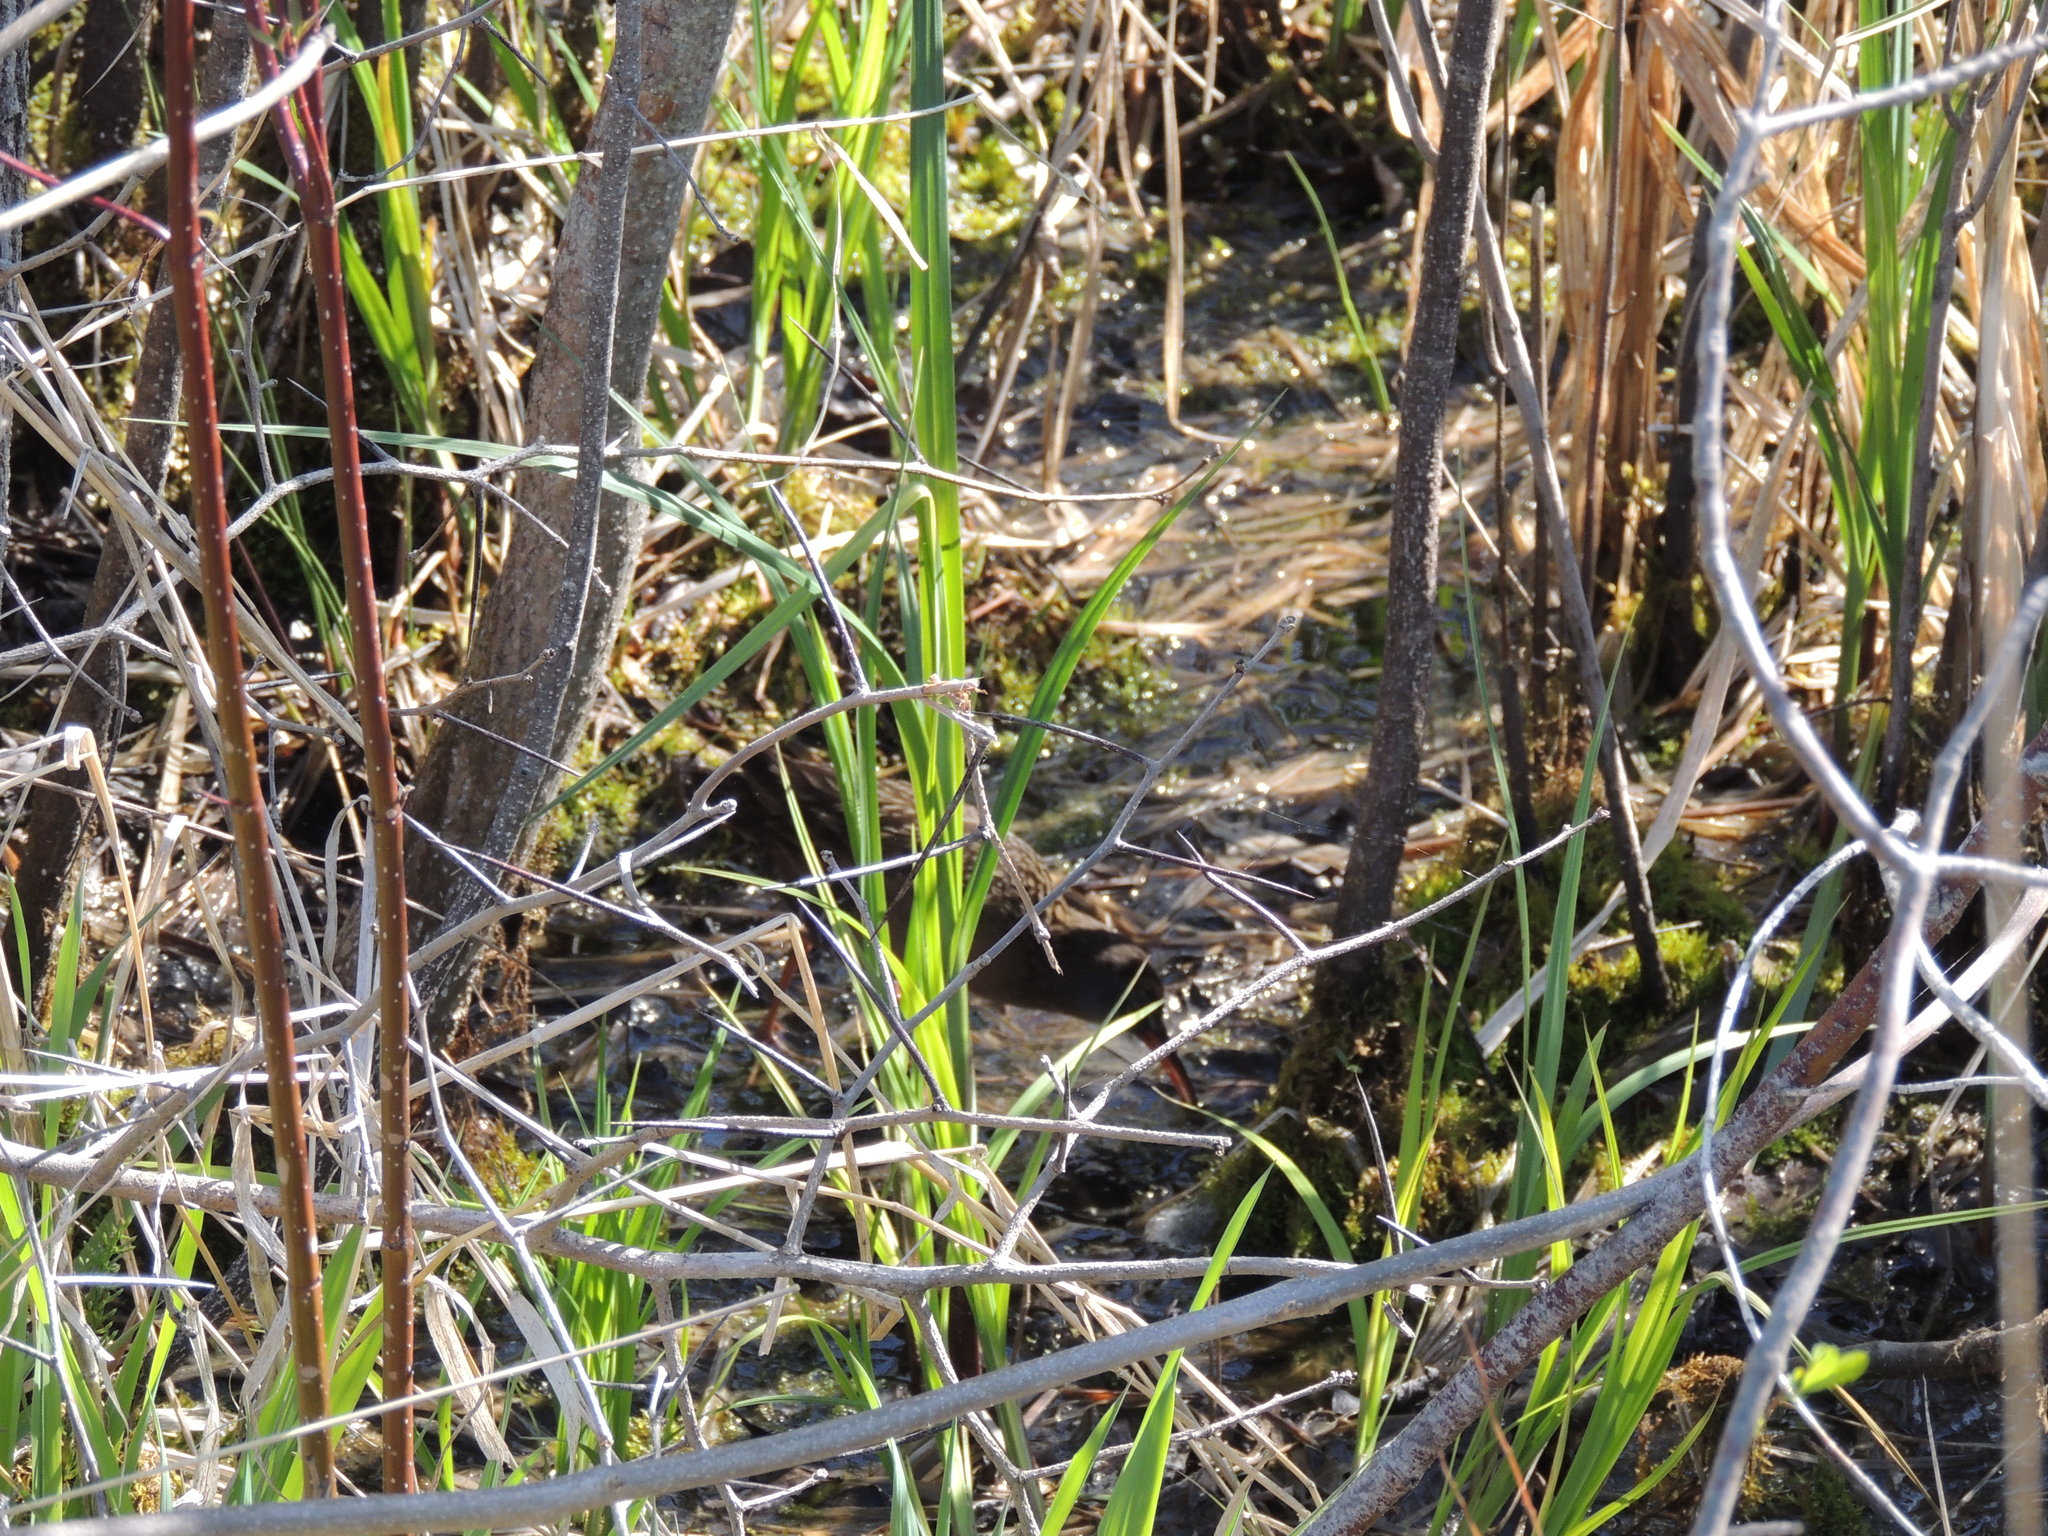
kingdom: Animalia
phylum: Chordata
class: Aves
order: Gruiformes
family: Rallidae
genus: Rallus
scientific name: Rallus limicola
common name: Virginia rail
